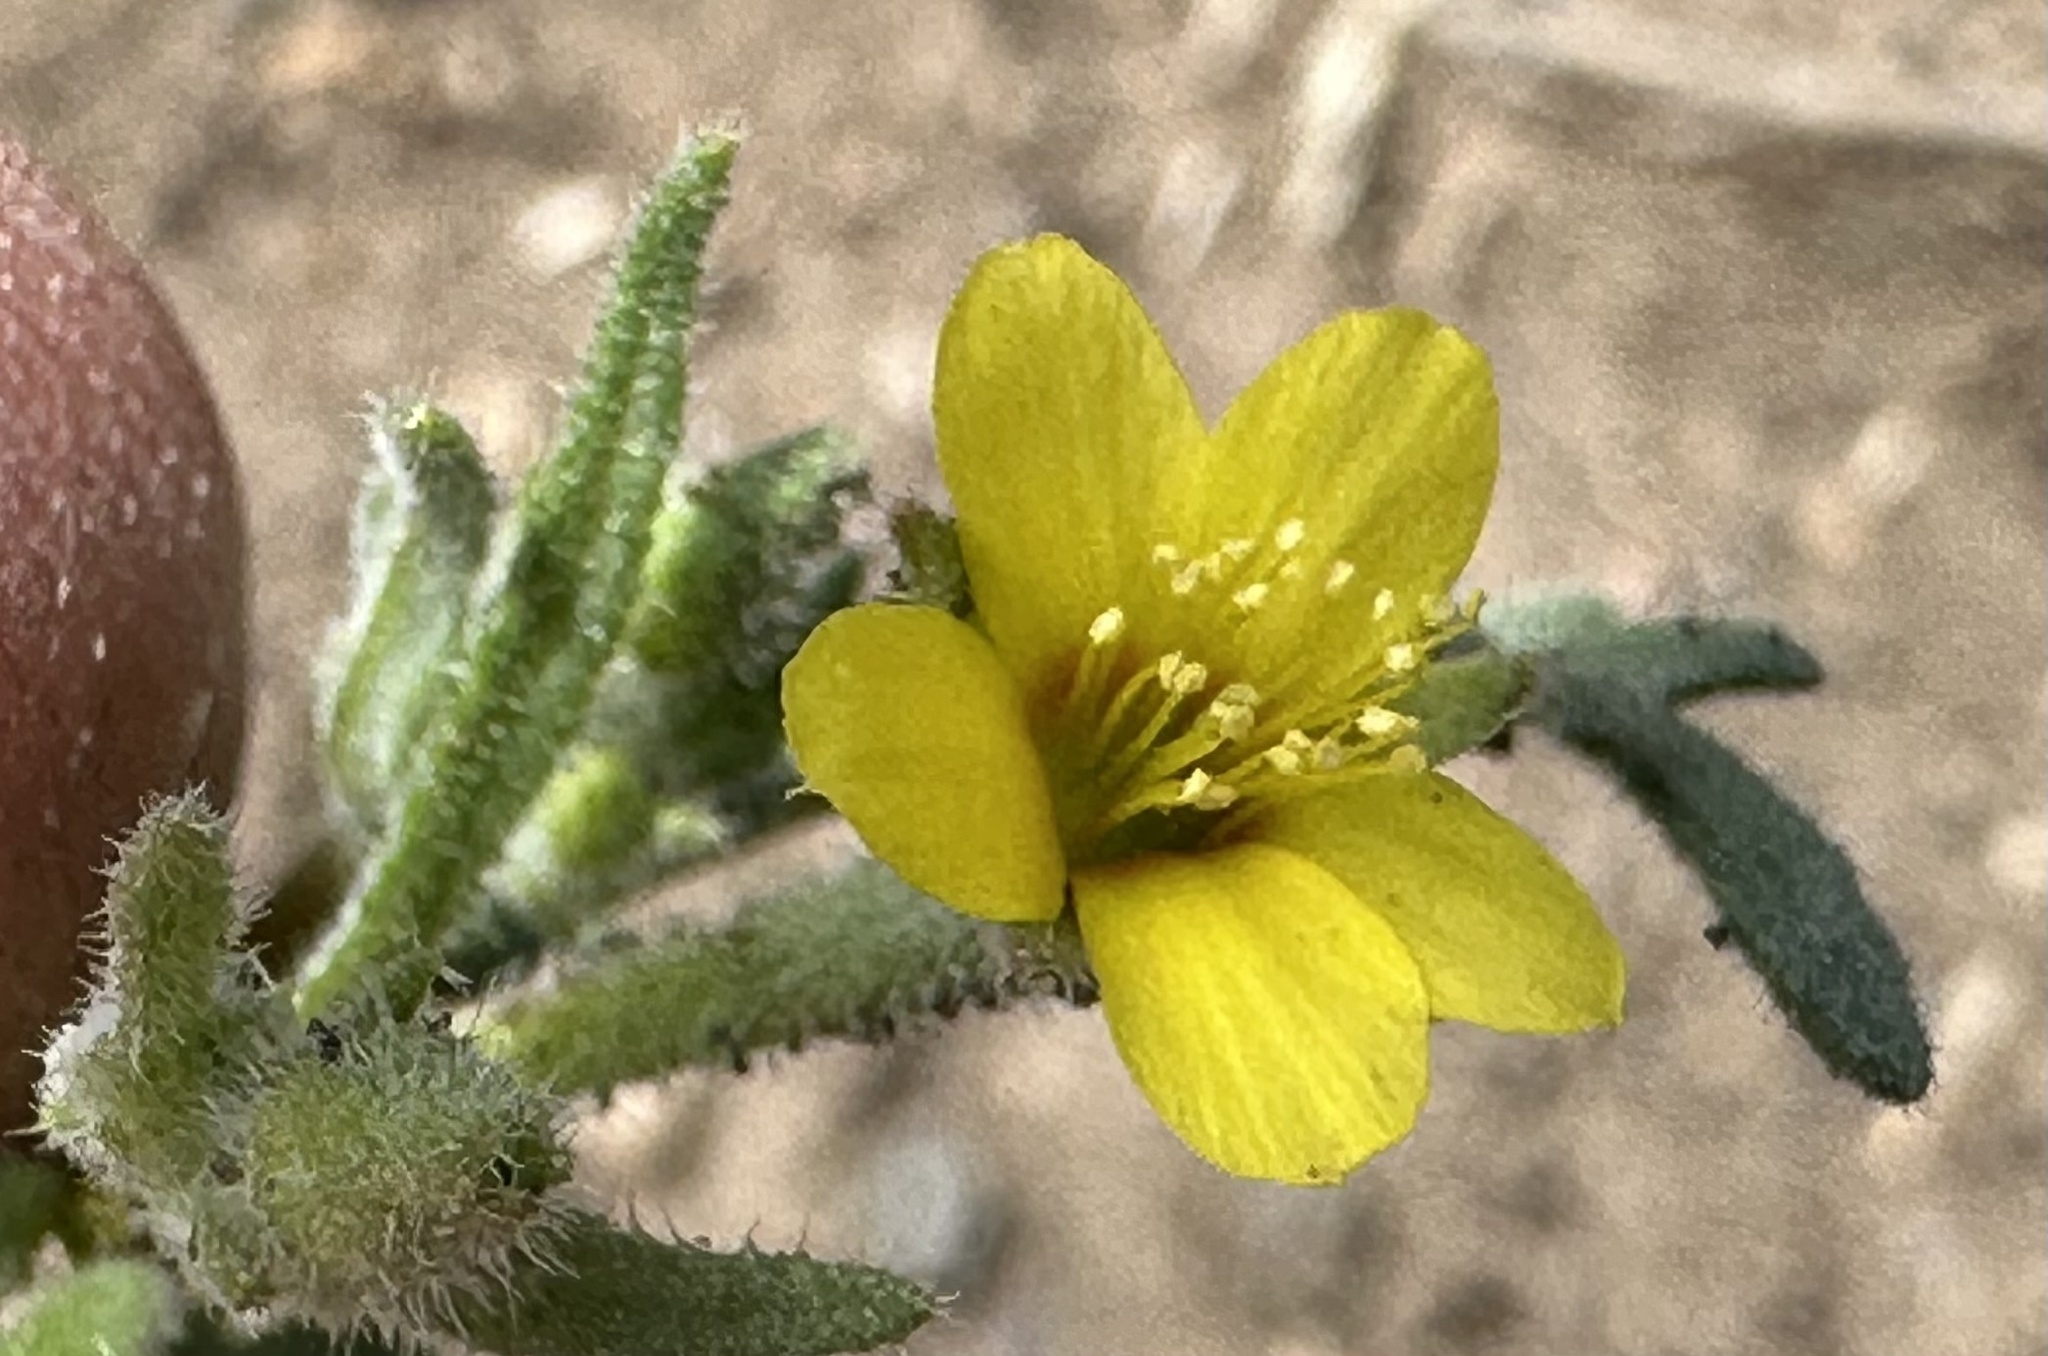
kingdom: Plantae
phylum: Tracheophyta
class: Magnoliopsida
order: Cornales
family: Loasaceae
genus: Mentzelia
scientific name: Mentzelia albicaulis
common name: White-stem blazingstar
